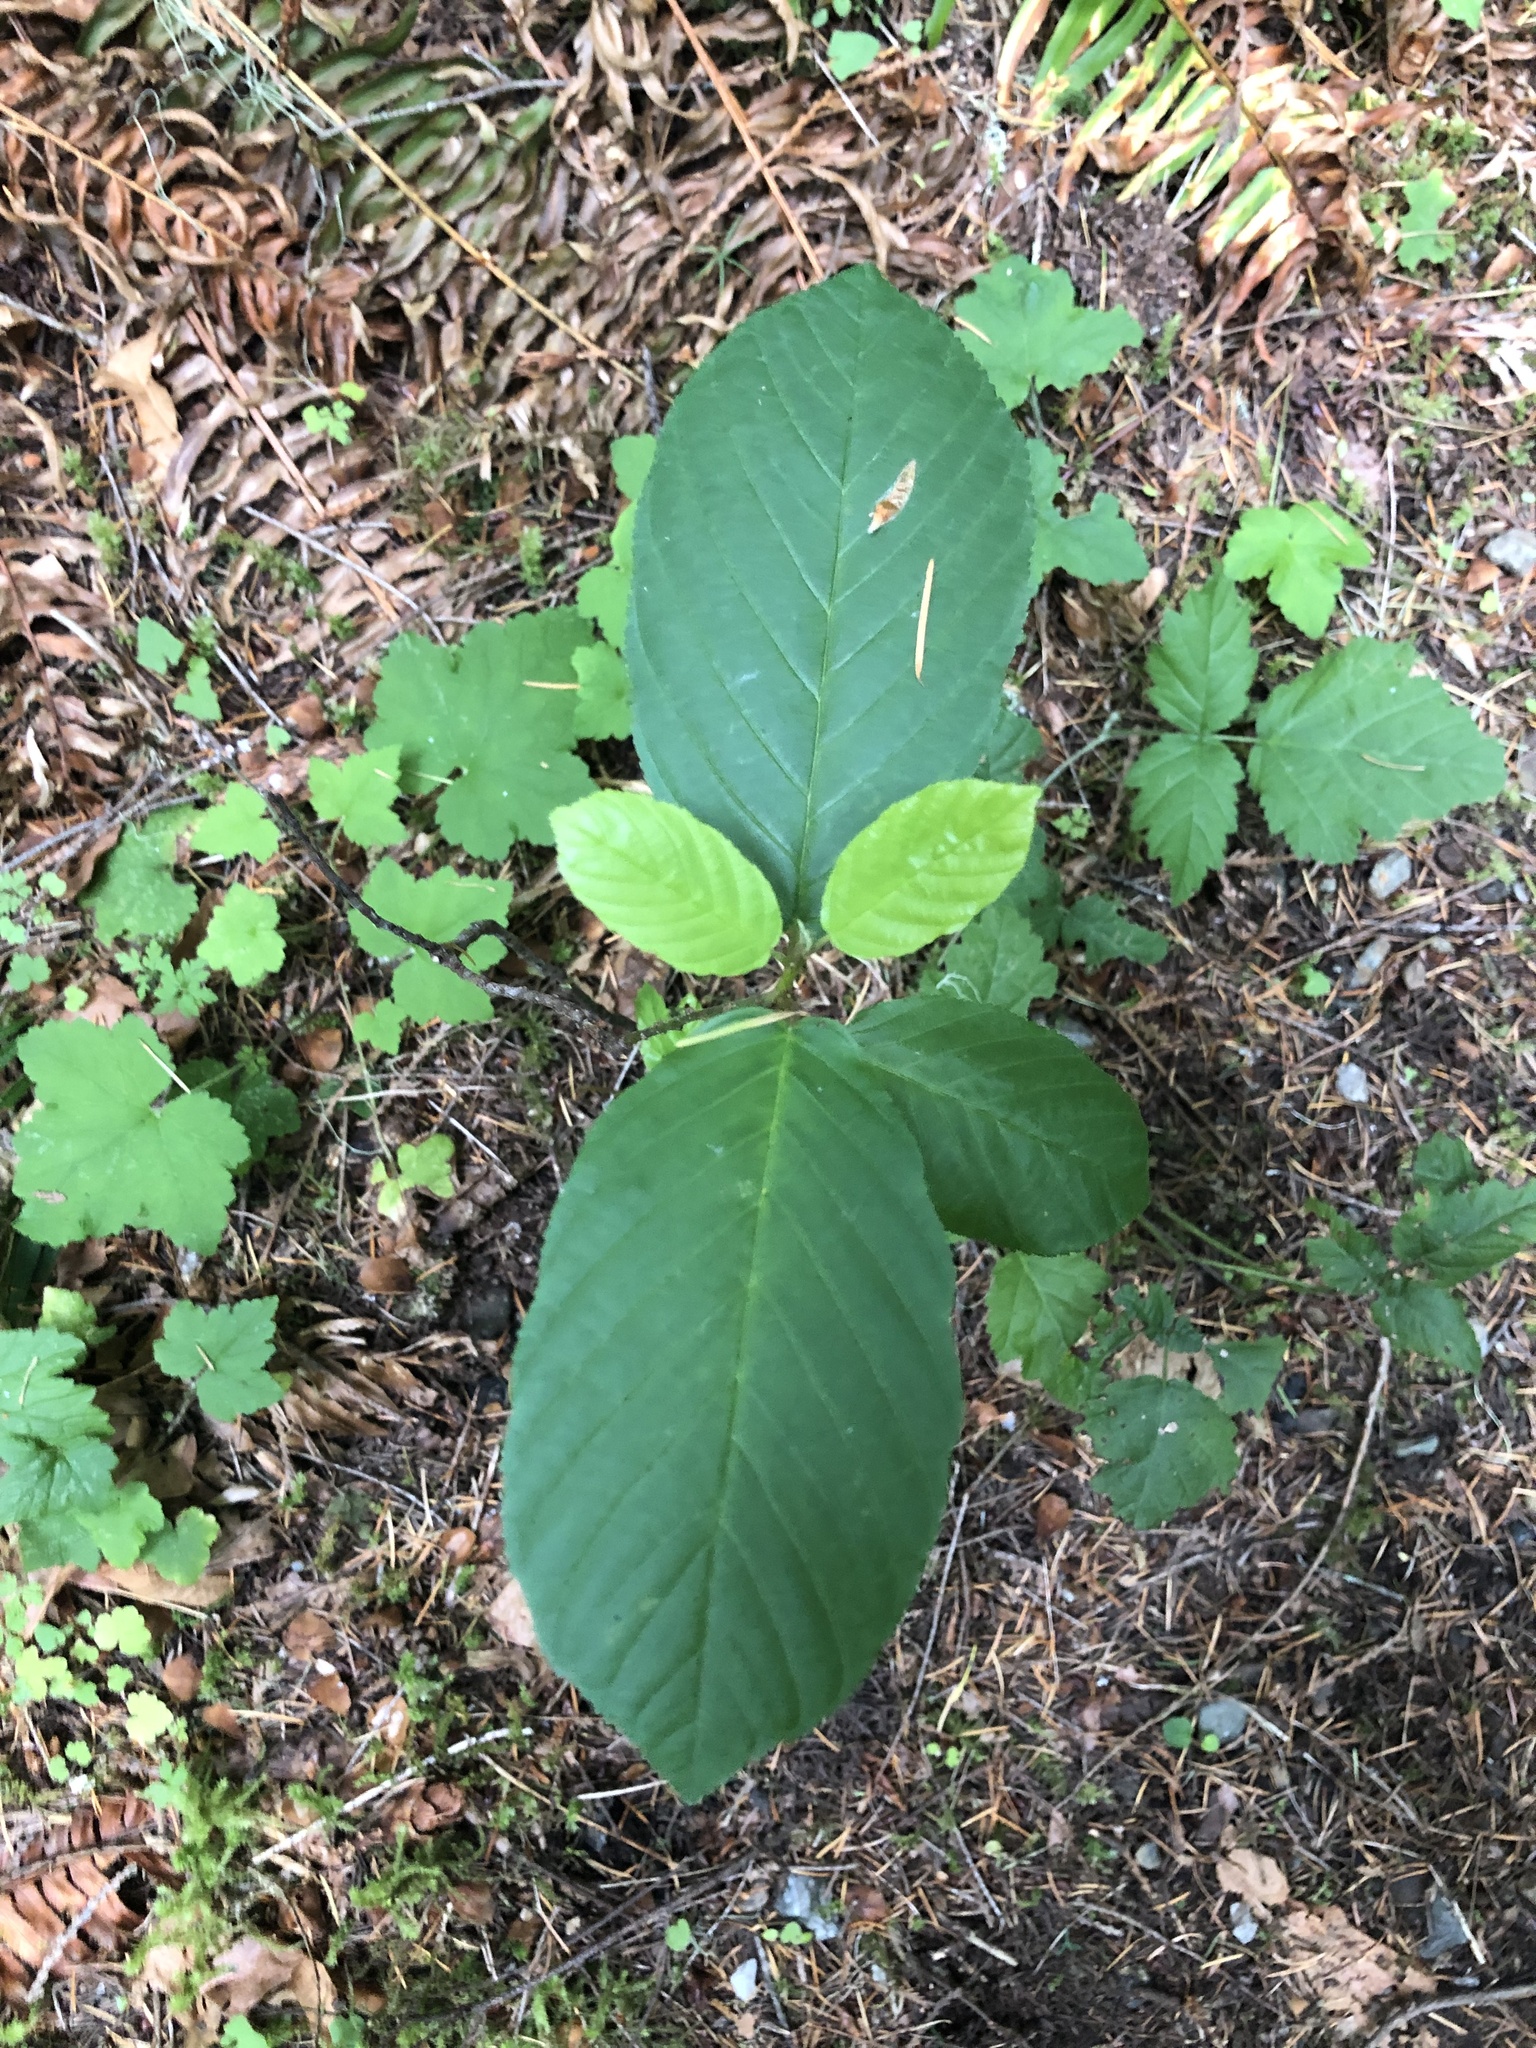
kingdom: Plantae
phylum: Tracheophyta
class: Magnoliopsida
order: Rosales
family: Rhamnaceae
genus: Frangula
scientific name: Frangula purshiana
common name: Cascara buckthorn
